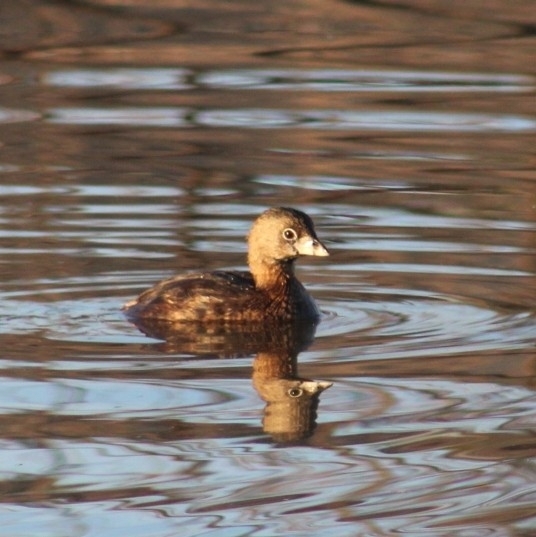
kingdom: Animalia
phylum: Chordata
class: Aves
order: Podicipediformes
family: Podicipedidae
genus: Podilymbus
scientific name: Podilymbus podiceps
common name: Pied-billed grebe
